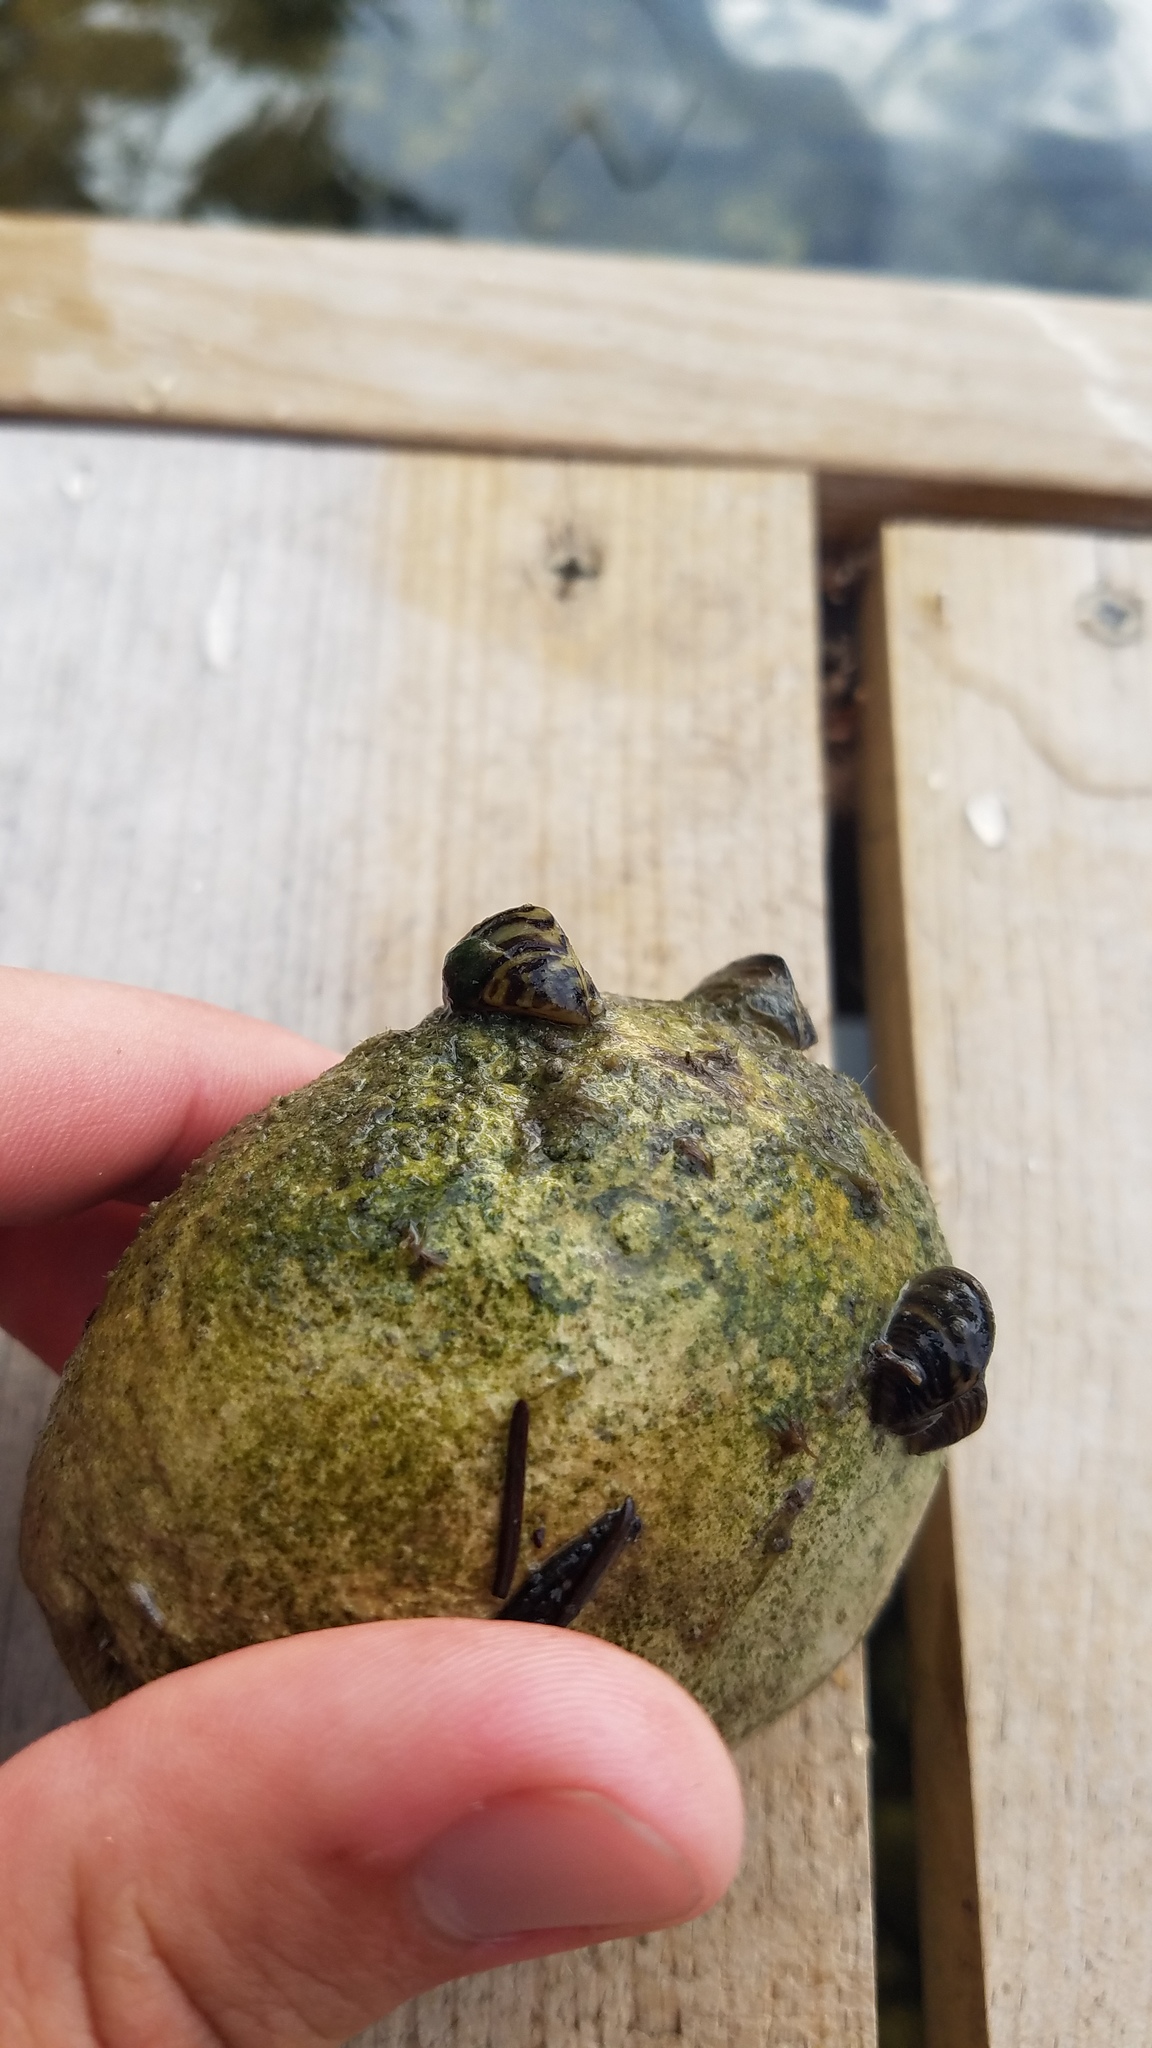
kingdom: Animalia
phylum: Mollusca
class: Bivalvia
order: Myida
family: Dreissenidae
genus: Dreissena
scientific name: Dreissena polymorpha
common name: Zebra mussel
